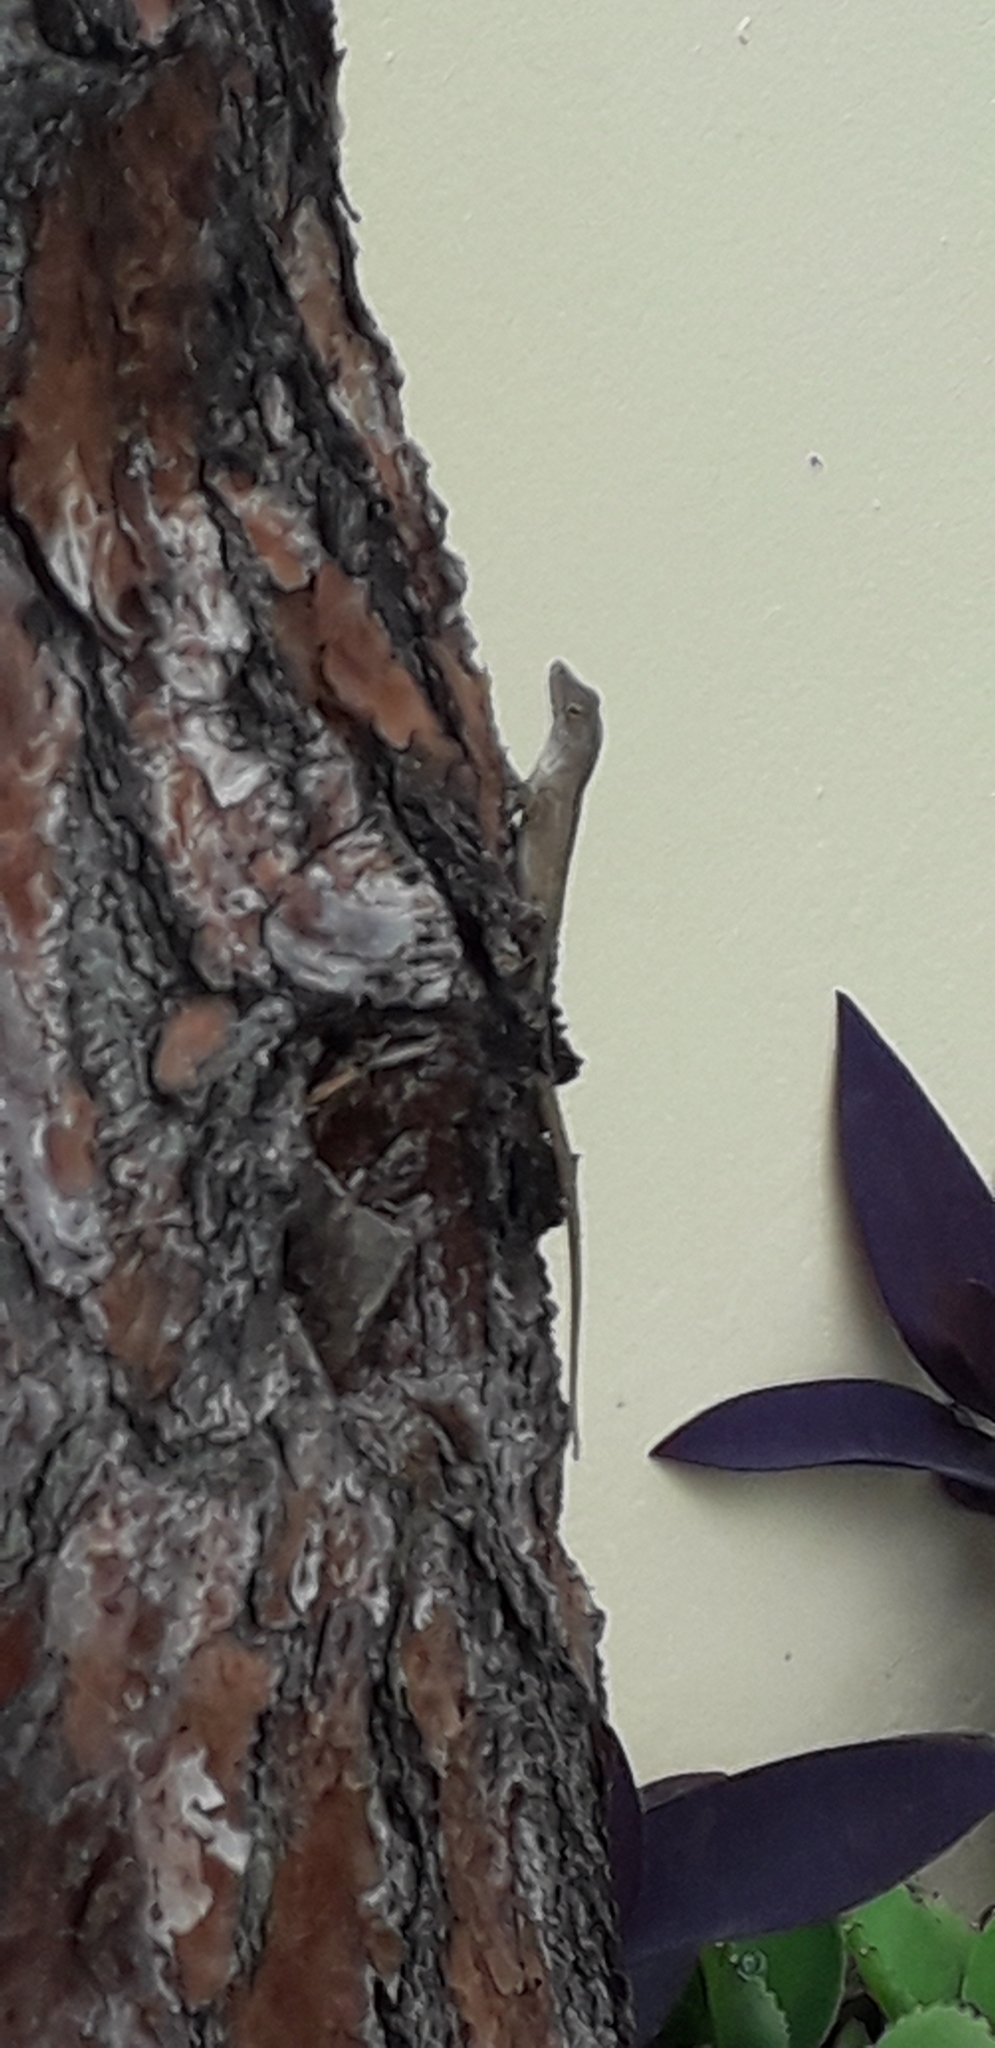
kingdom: Animalia
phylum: Chordata
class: Squamata
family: Dactyloidae
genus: Anolis
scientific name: Anolis sagrei
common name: Brown anole
